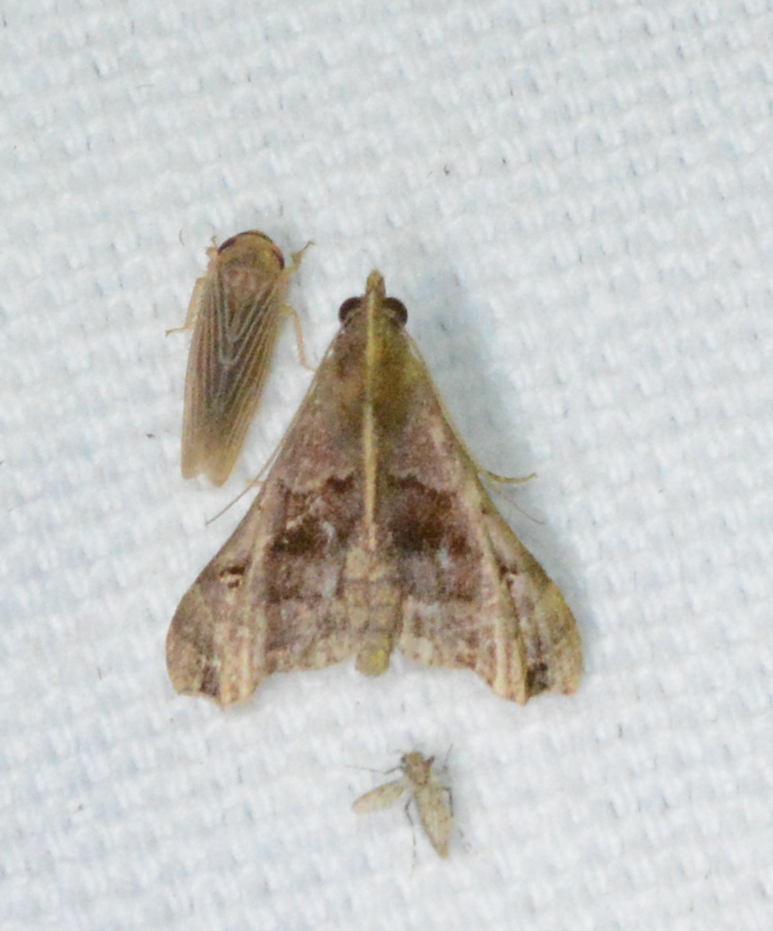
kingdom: Animalia
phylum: Arthropoda
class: Insecta
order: Lepidoptera
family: Erebidae
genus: Palthis
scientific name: Palthis asopialis
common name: Faint-spotted palthis moth
